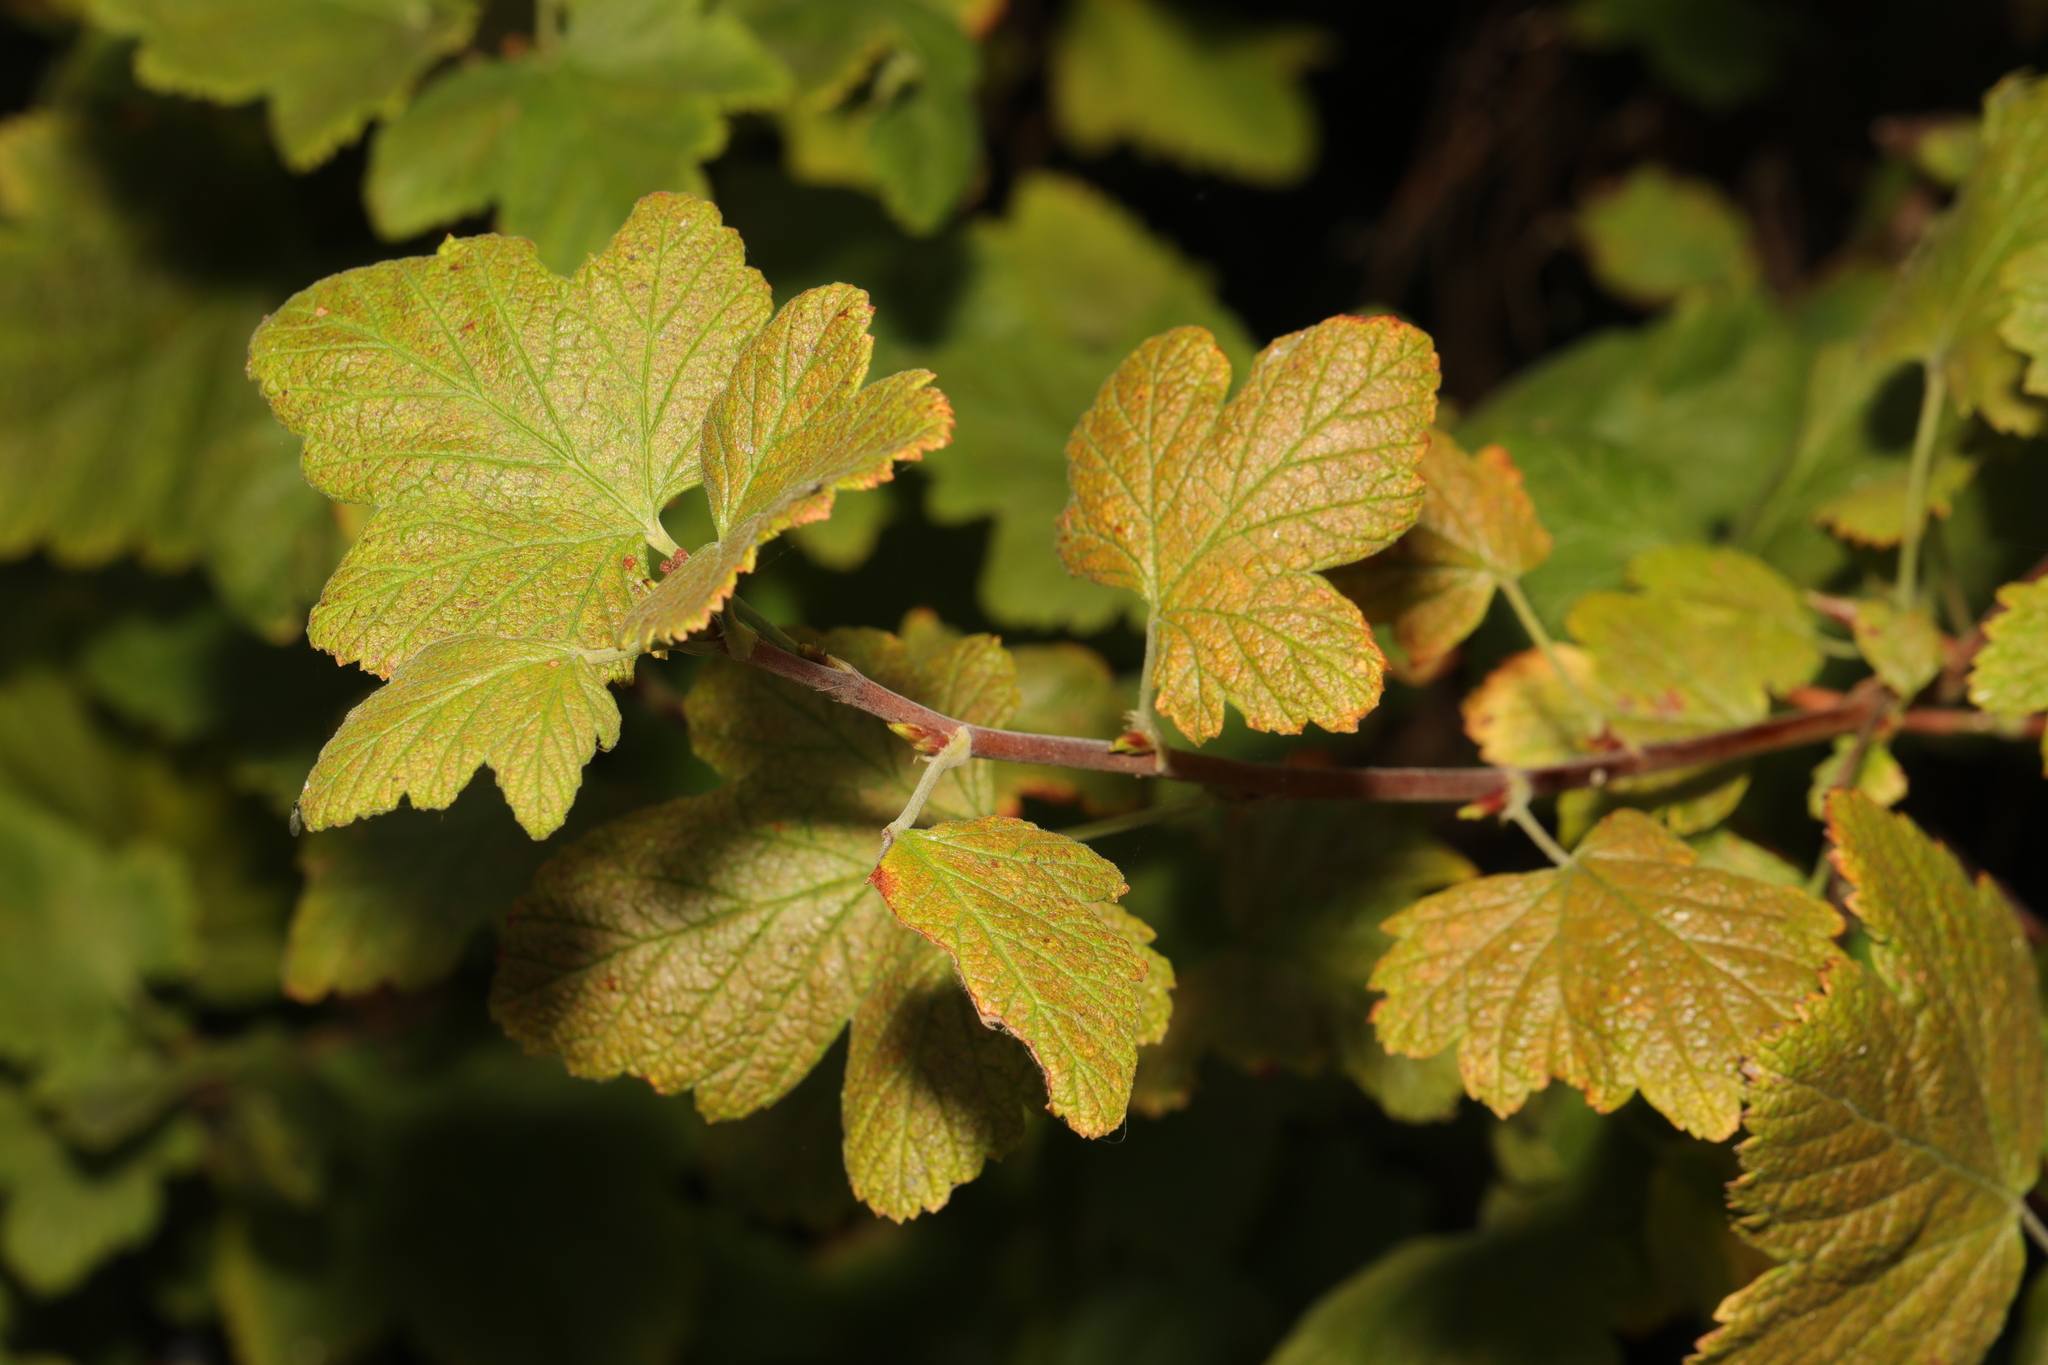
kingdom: Plantae
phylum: Tracheophyta
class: Magnoliopsida
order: Saxifragales
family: Grossulariaceae
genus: Ribes
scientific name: Ribes sanguineum
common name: Flowering currant
